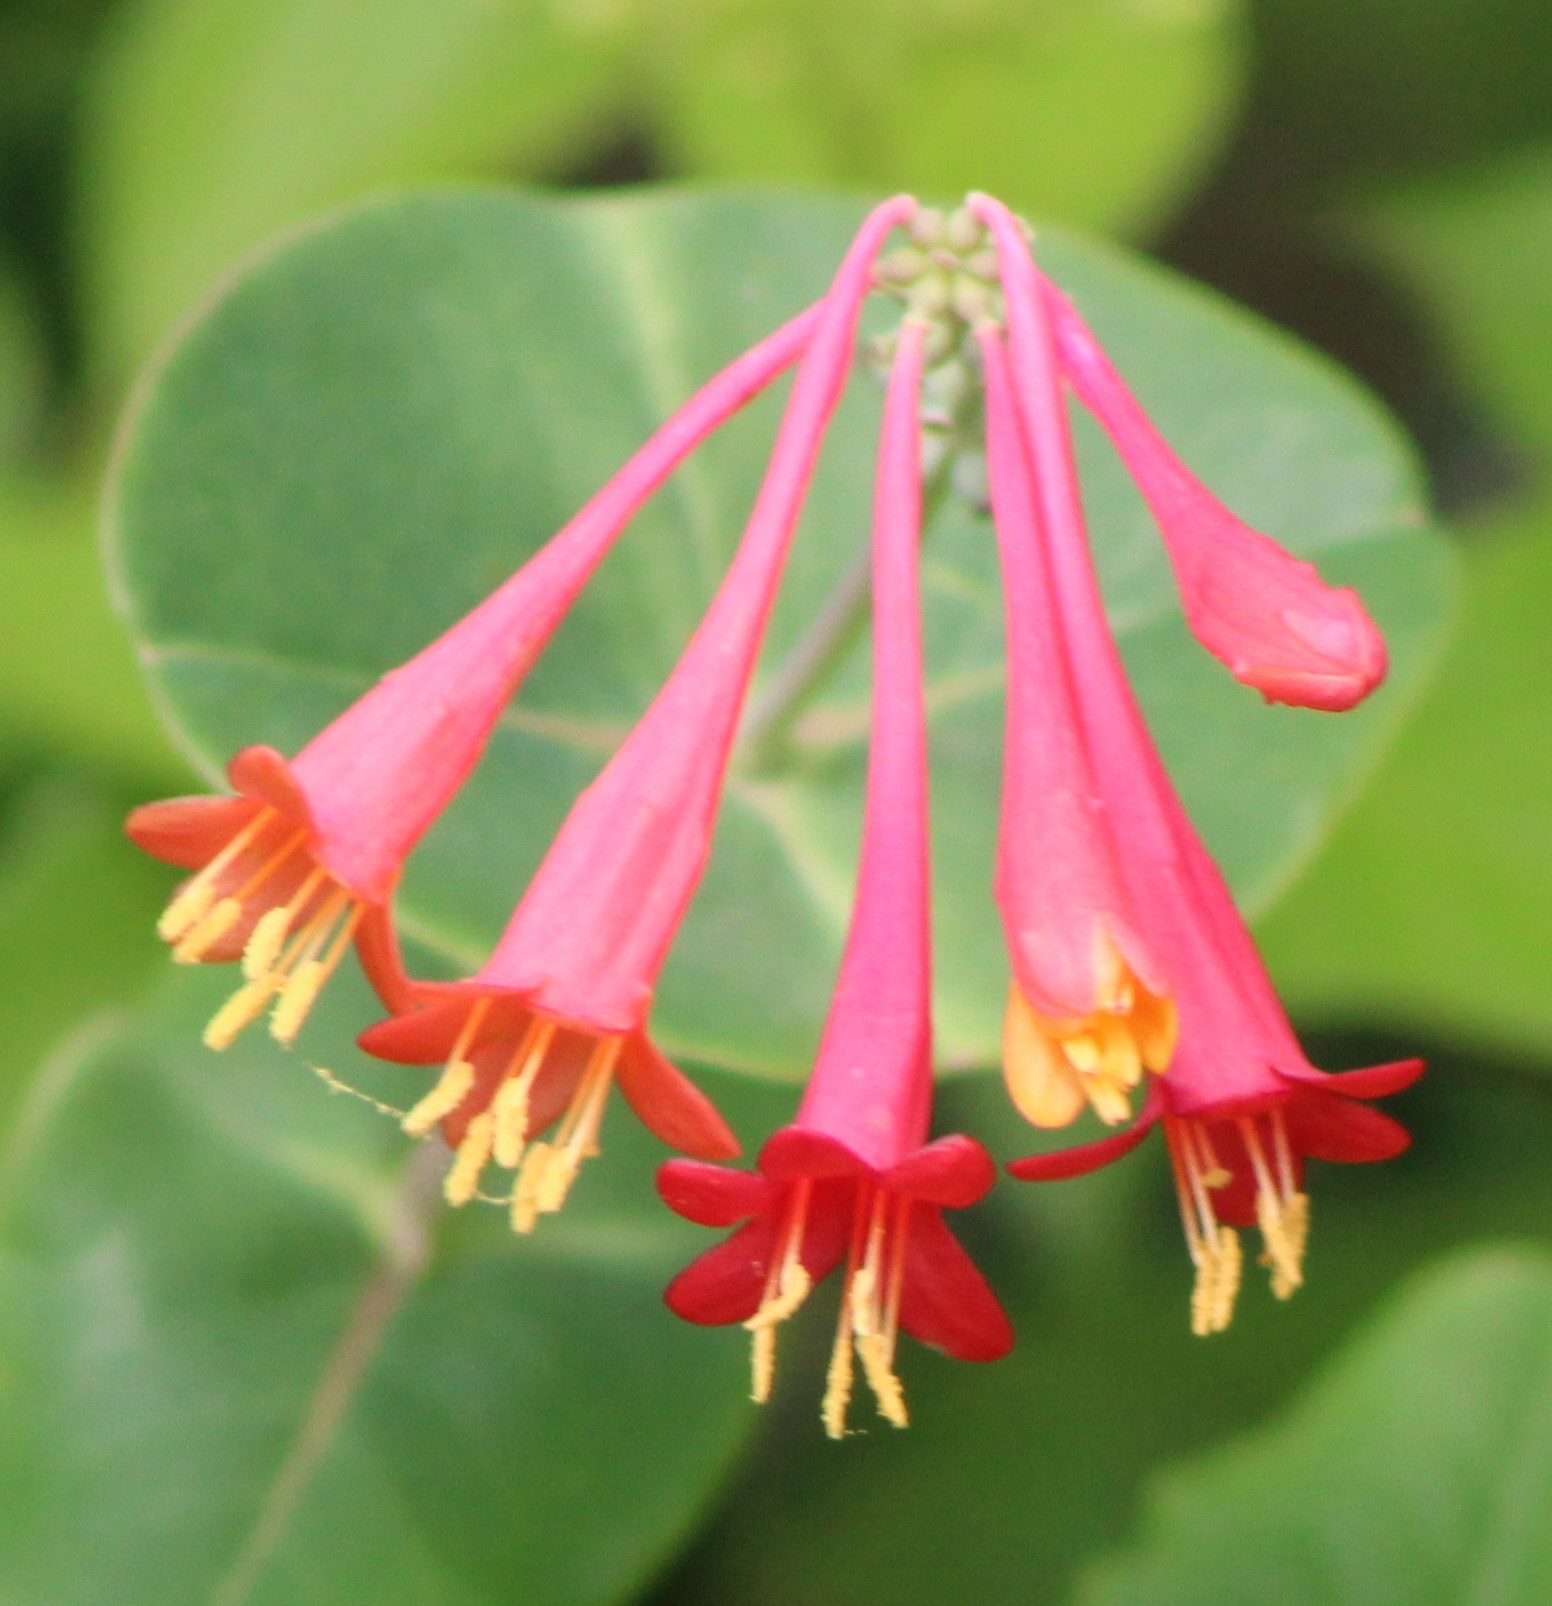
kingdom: Plantae
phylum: Tracheophyta
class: Magnoliopsida
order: Dipsacales
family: Caprifoliaceae
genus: Lonicera
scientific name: Lonicera sempervirens
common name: Coral honeysuckle
